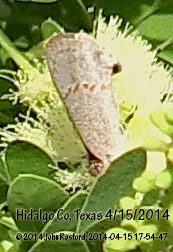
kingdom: Animalia
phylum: Arthropoda
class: Insecta
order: Lepidoptera
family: Lycaenidae
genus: Ministrymon
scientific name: Ministrymon janevicroy
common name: Pebbly ministreak
